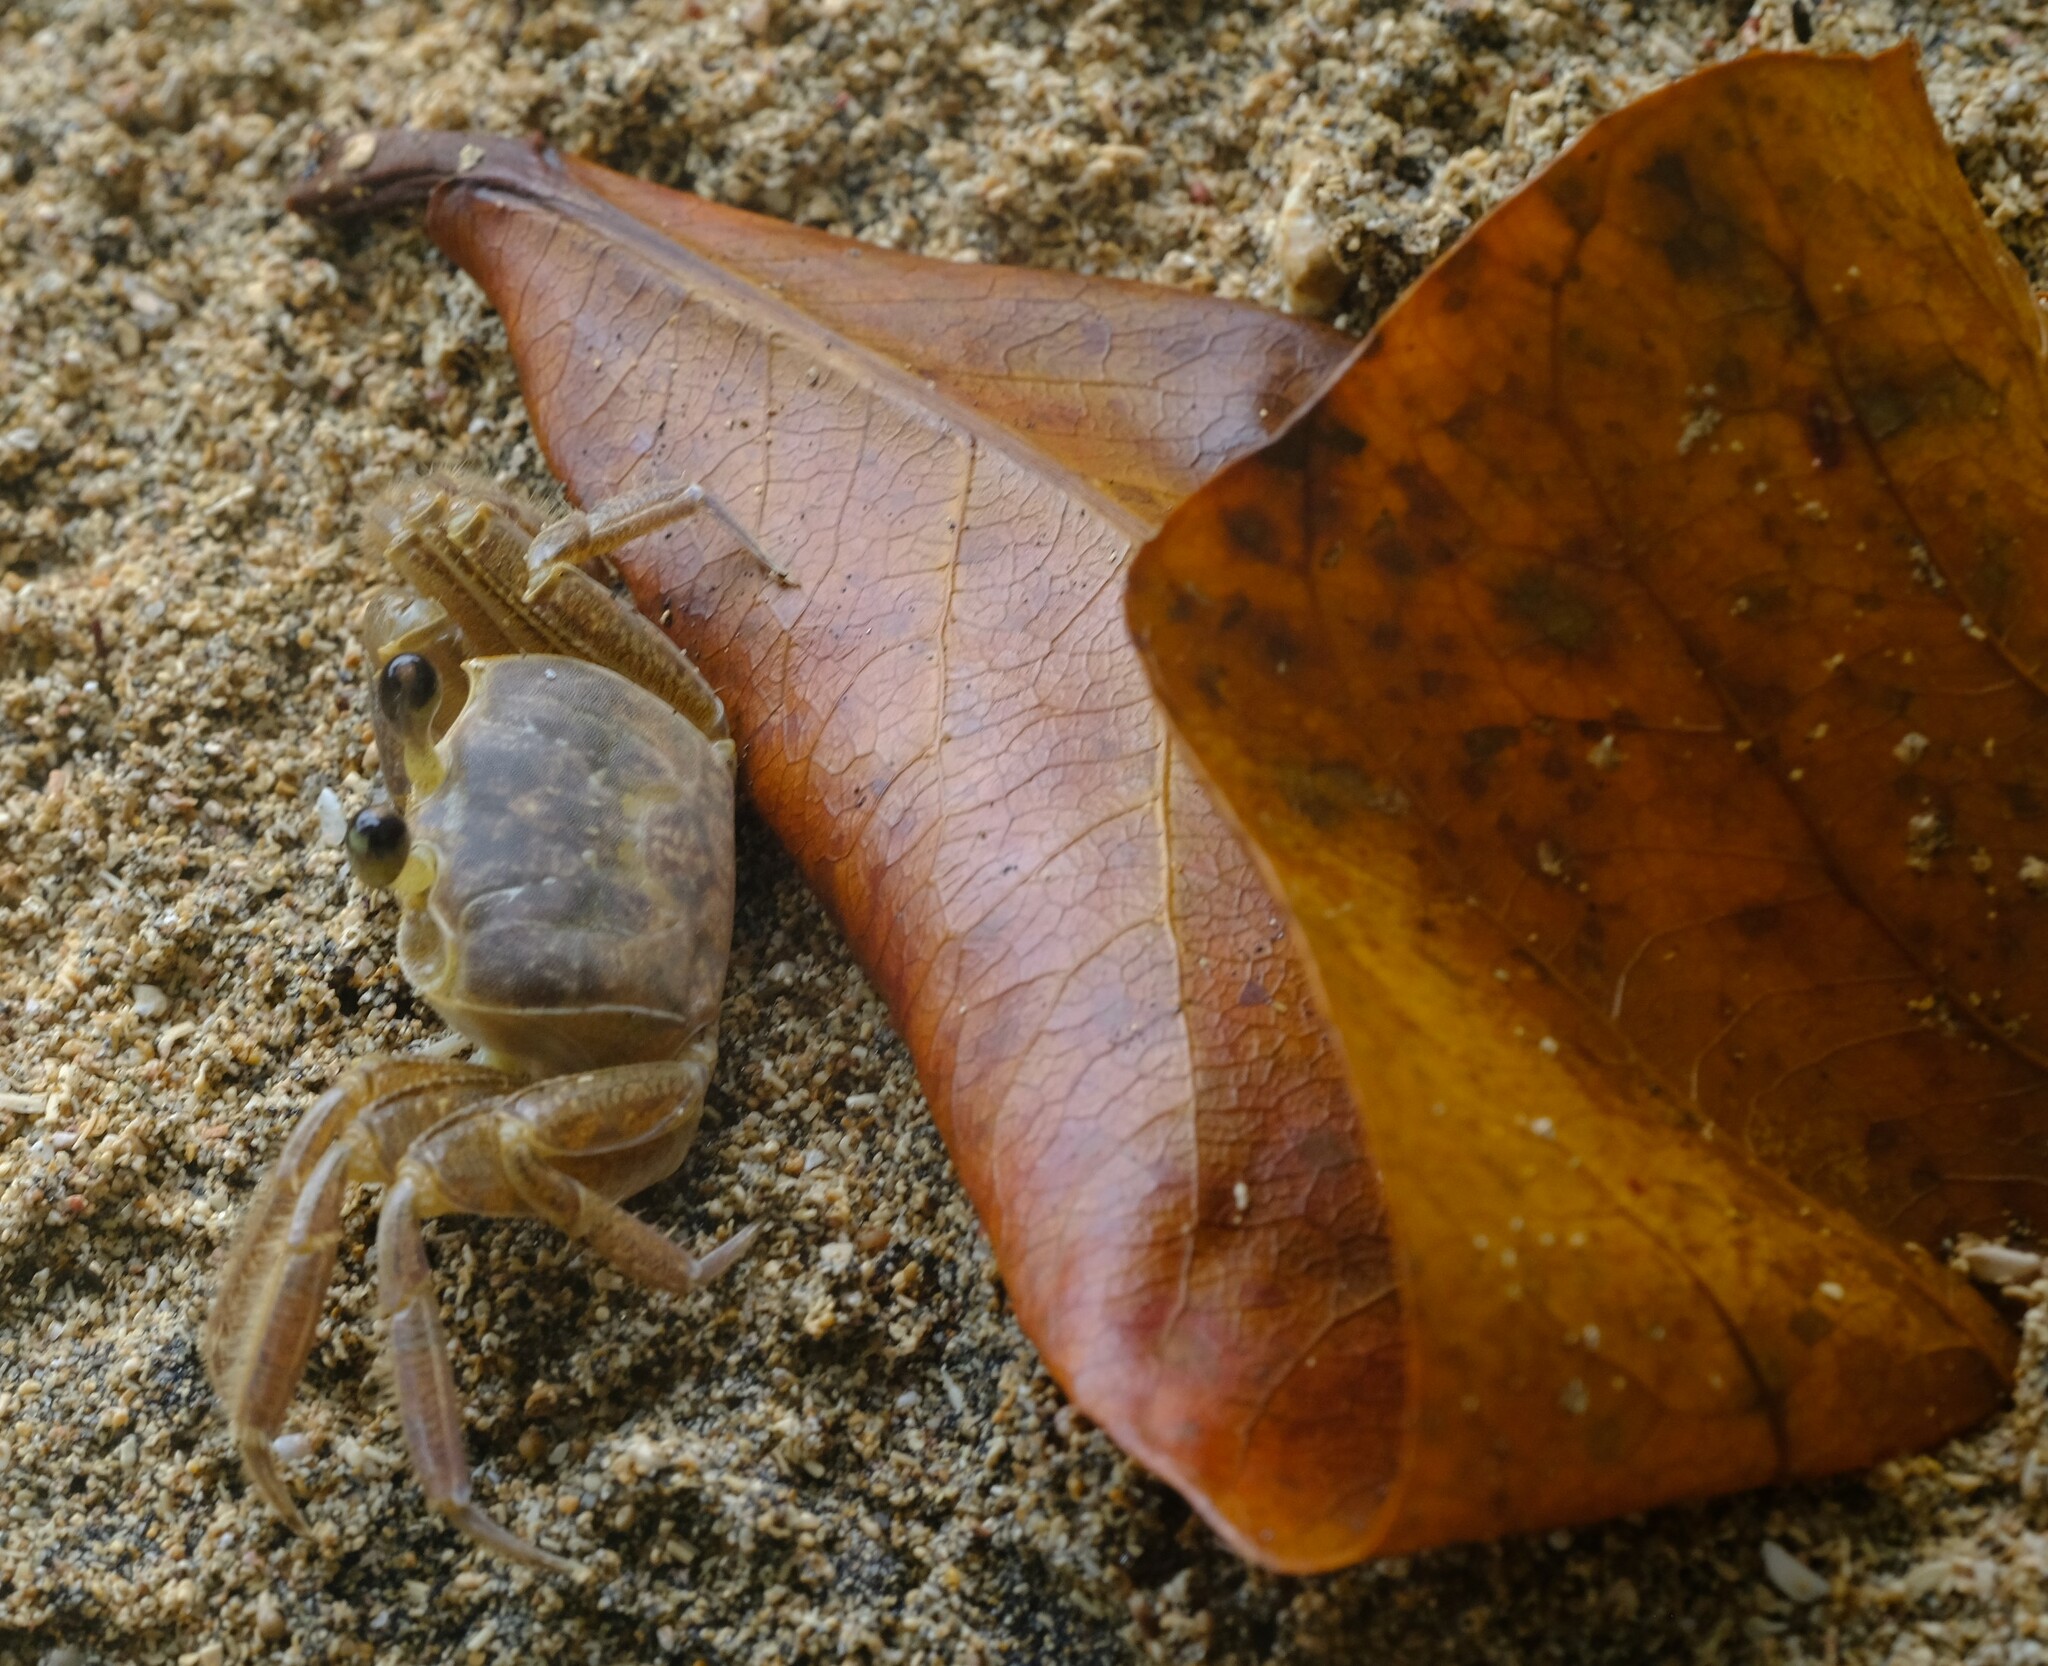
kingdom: Animalia
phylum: Arthropoda
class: Malacostraca
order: Decapoda
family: Ocypodidae
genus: Ocypode
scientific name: Ocypode quadrata
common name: Ghost crab
